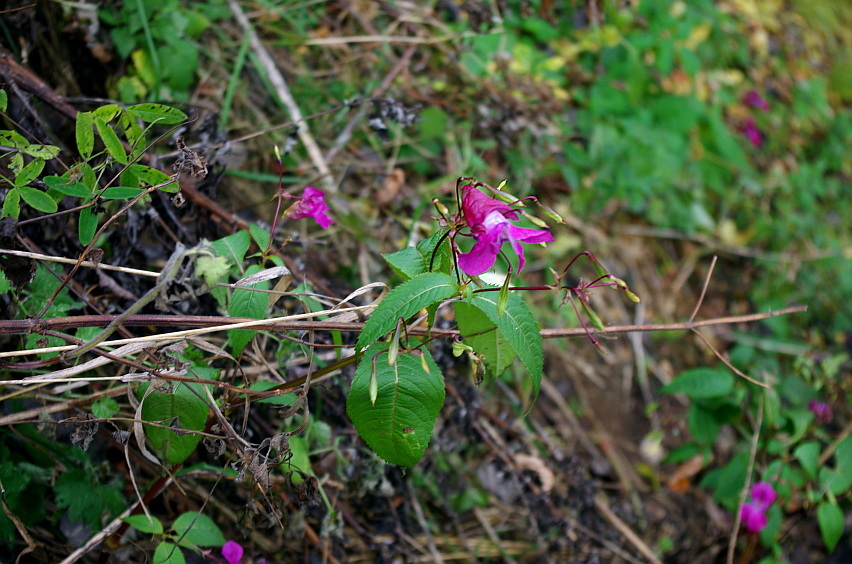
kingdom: Plantae
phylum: Tracheophyta
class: Magnoliopsida
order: Ericales
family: Balsaminaceae
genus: Impatiens
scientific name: Impatiens glandulifera
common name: Himalayan balsam
